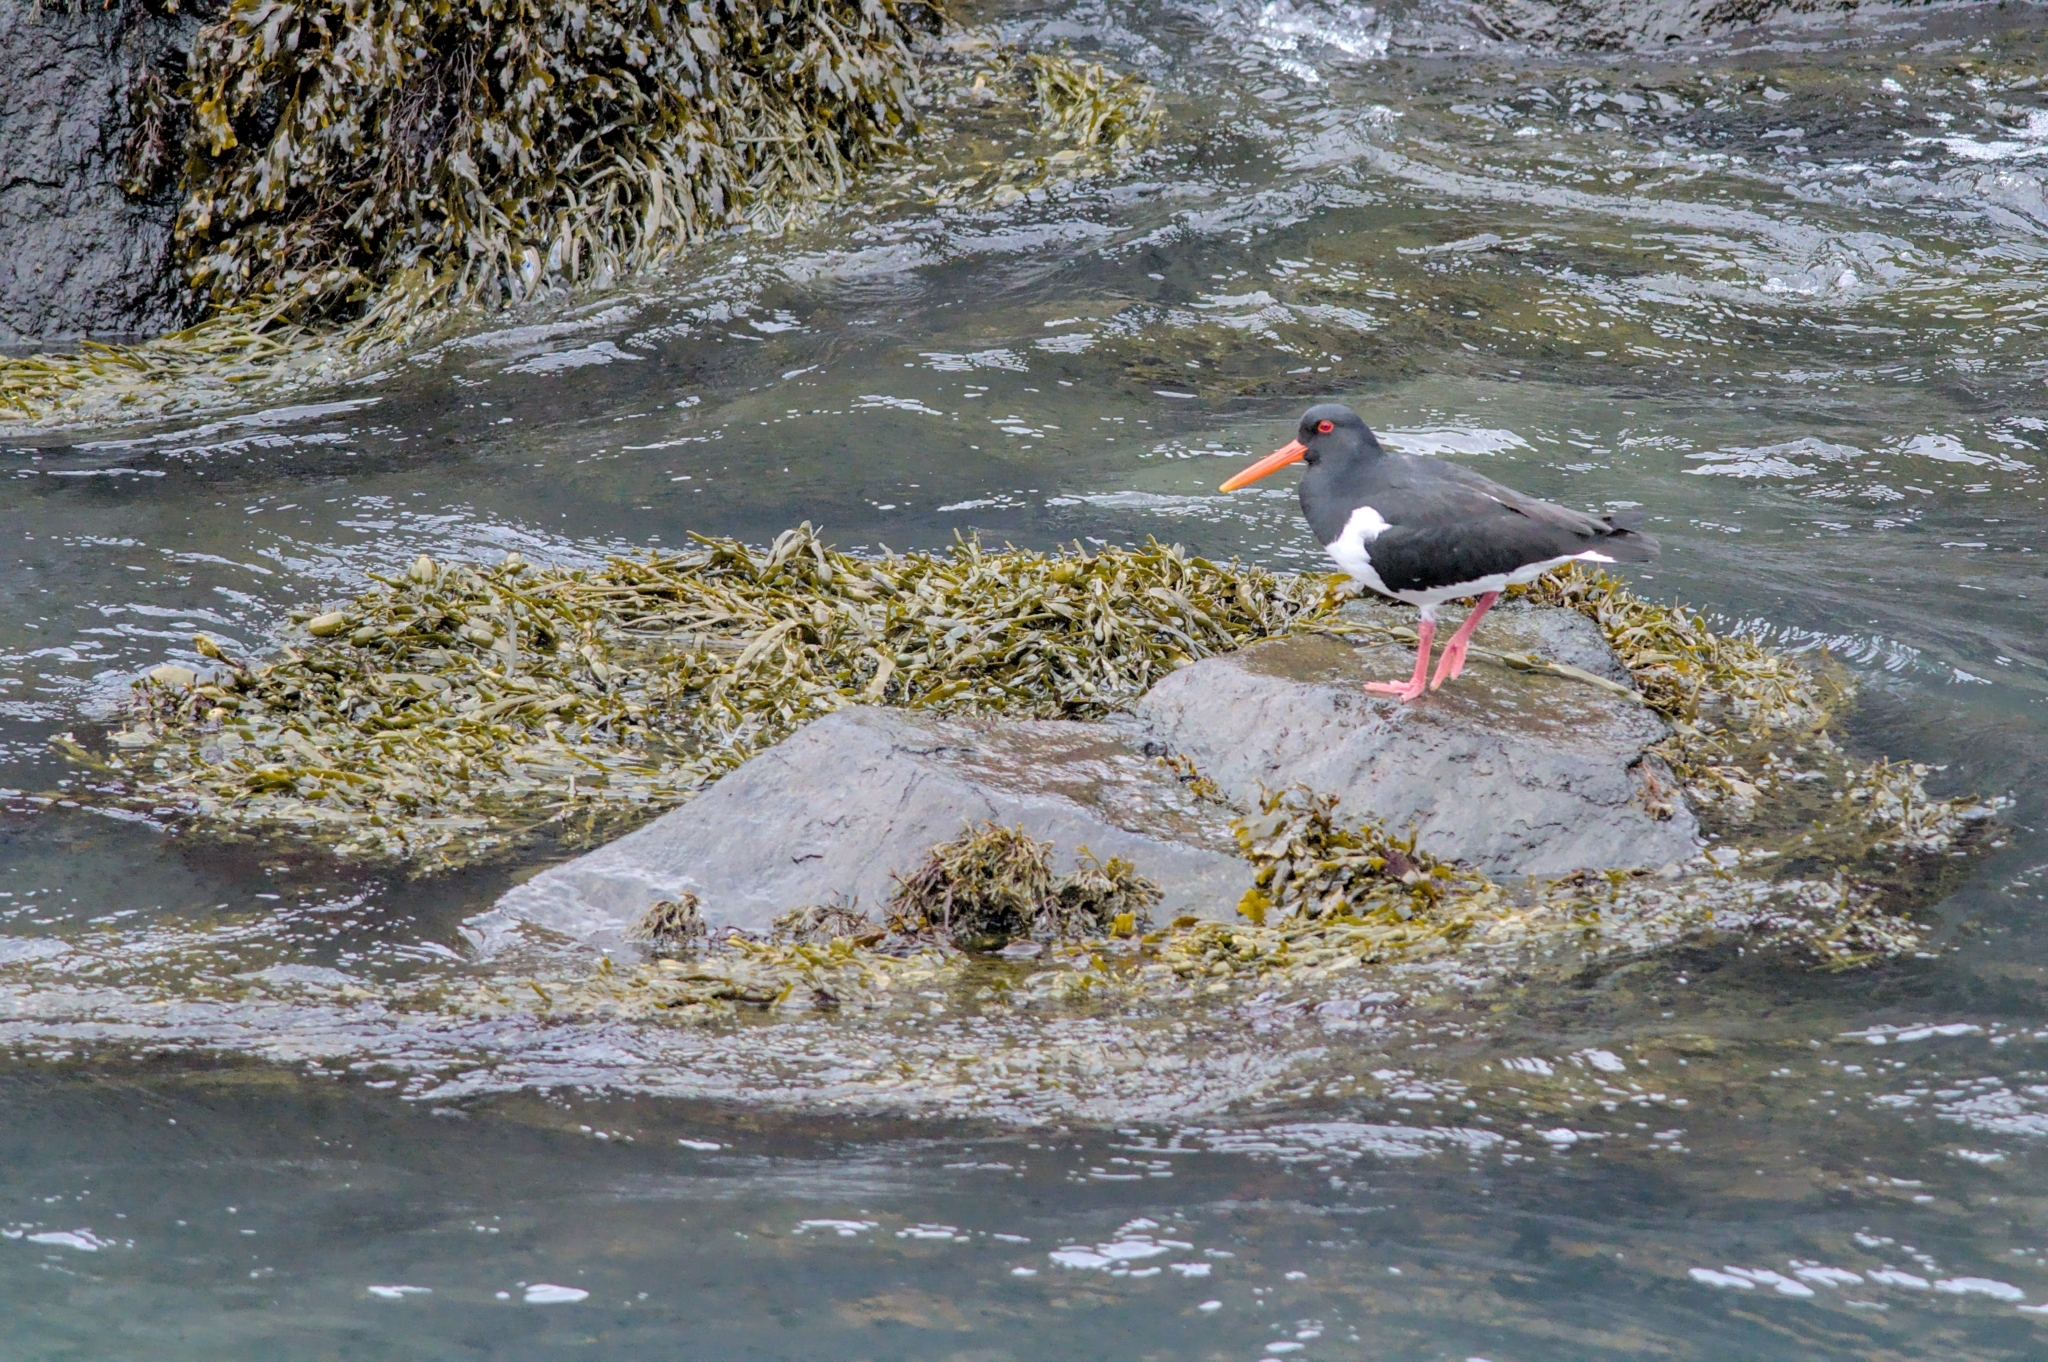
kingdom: Animalia
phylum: Chordata
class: Aves
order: Charadriiformes
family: Haematopodidae
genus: Haematopus
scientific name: Haematopus ostralegus
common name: Eurasian oystercatcher
